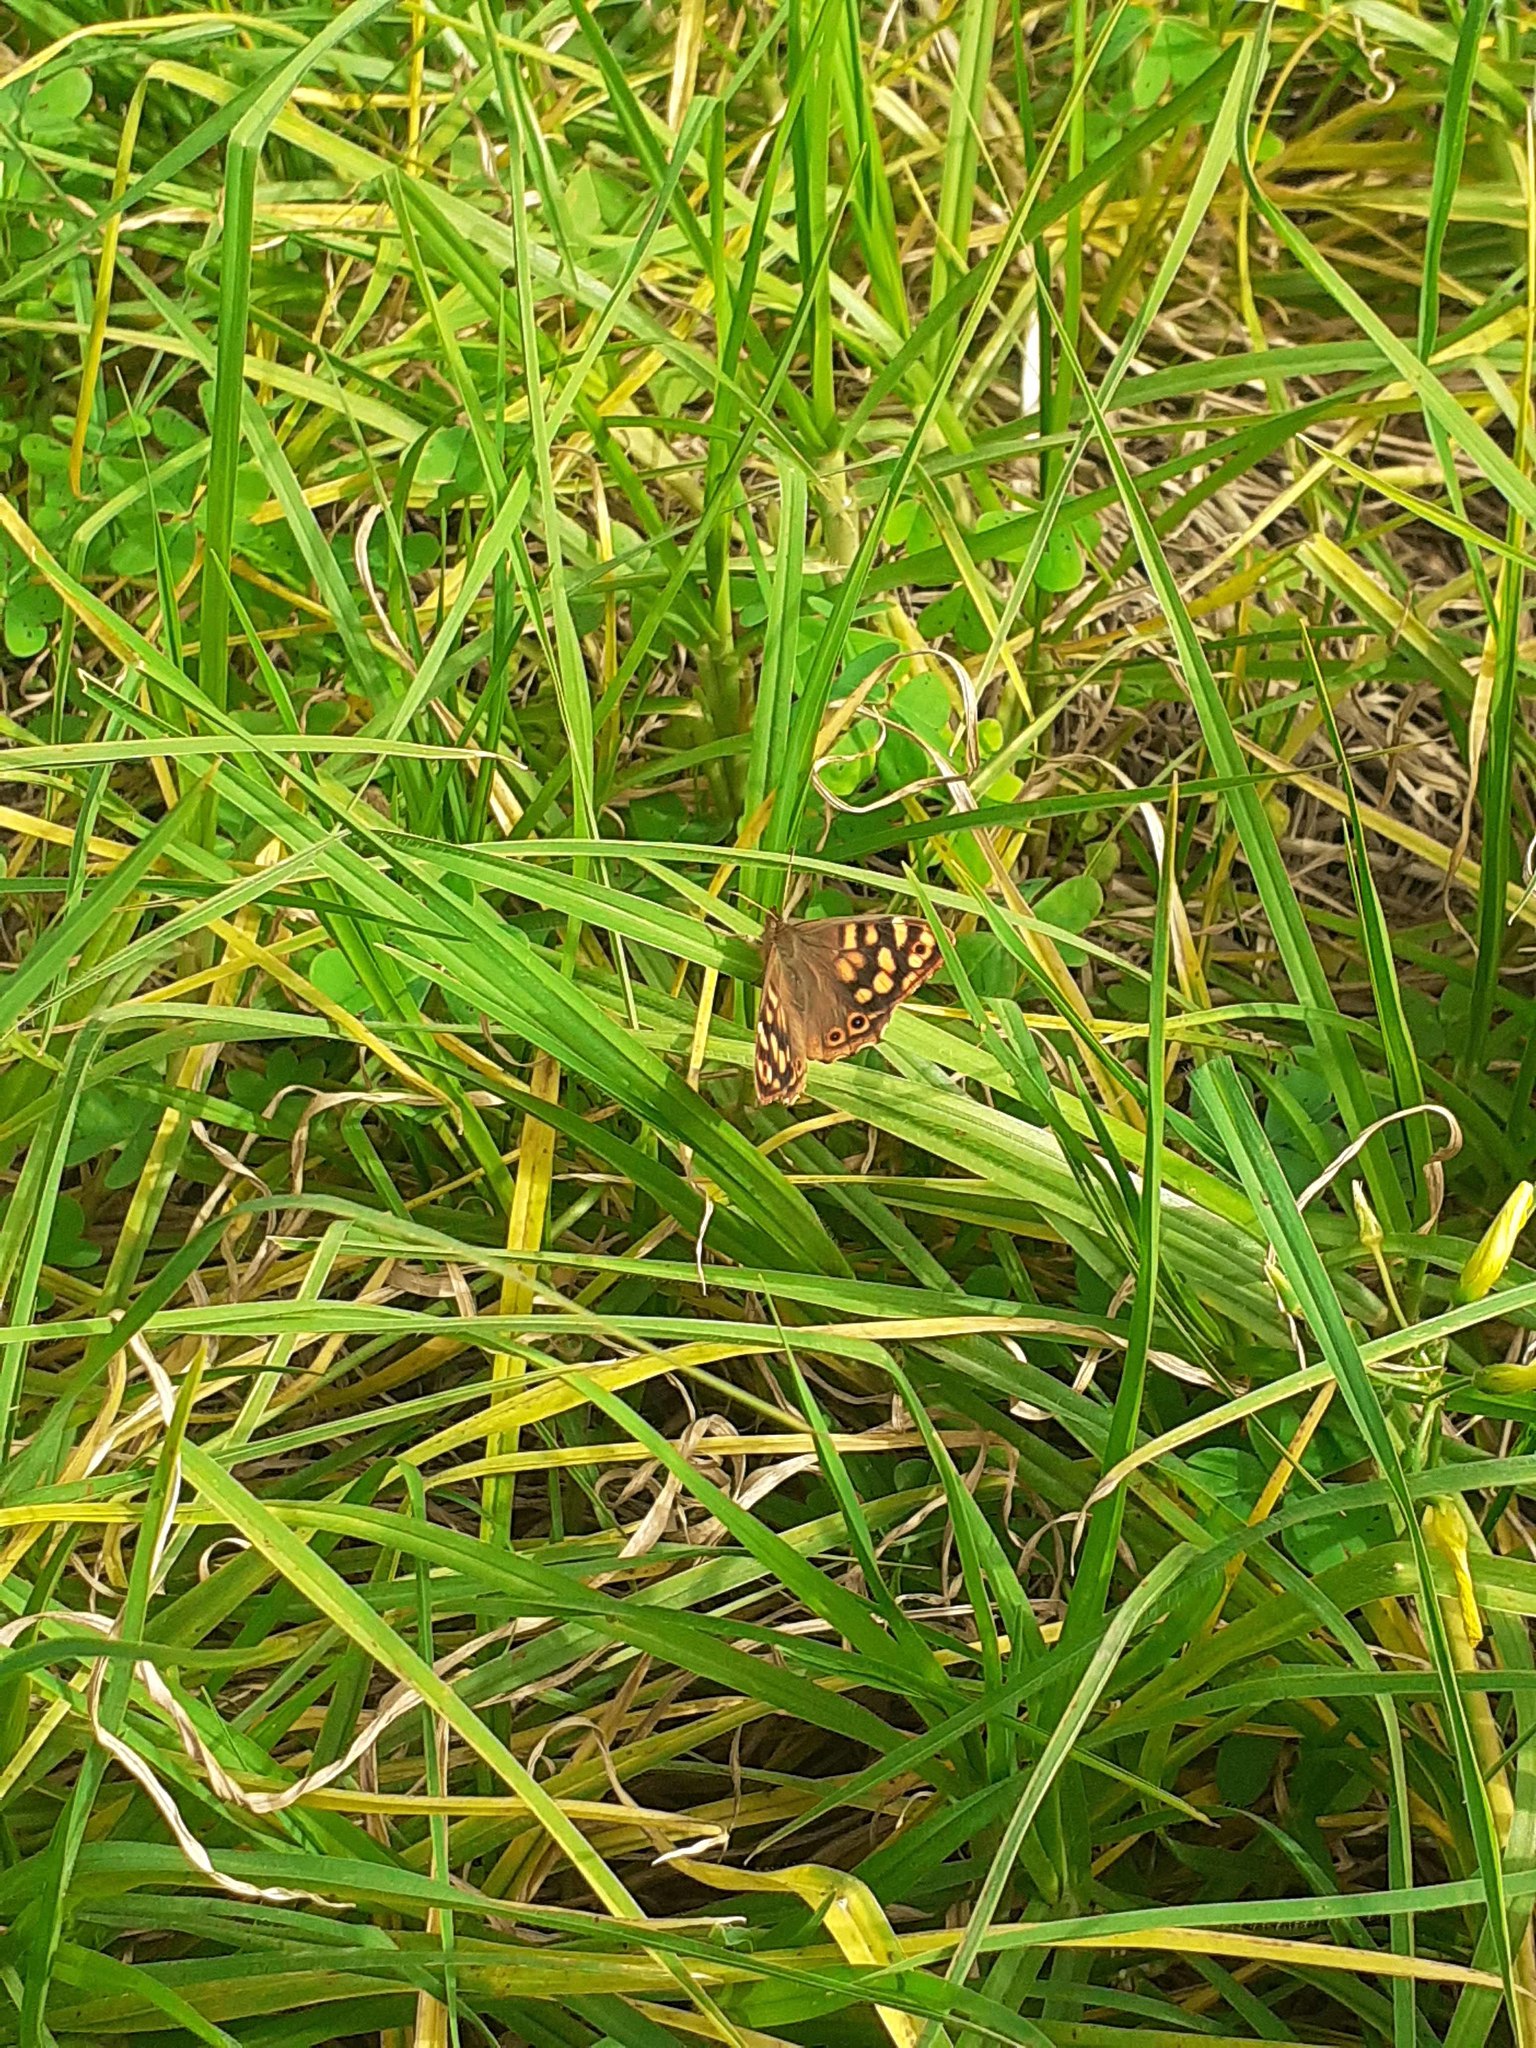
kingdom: Animalia
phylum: Arthropoda
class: Insecta
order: Lepidoptera
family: Nymphalidae
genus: Pararge
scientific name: Pararge aegeria
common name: Speckled wood
